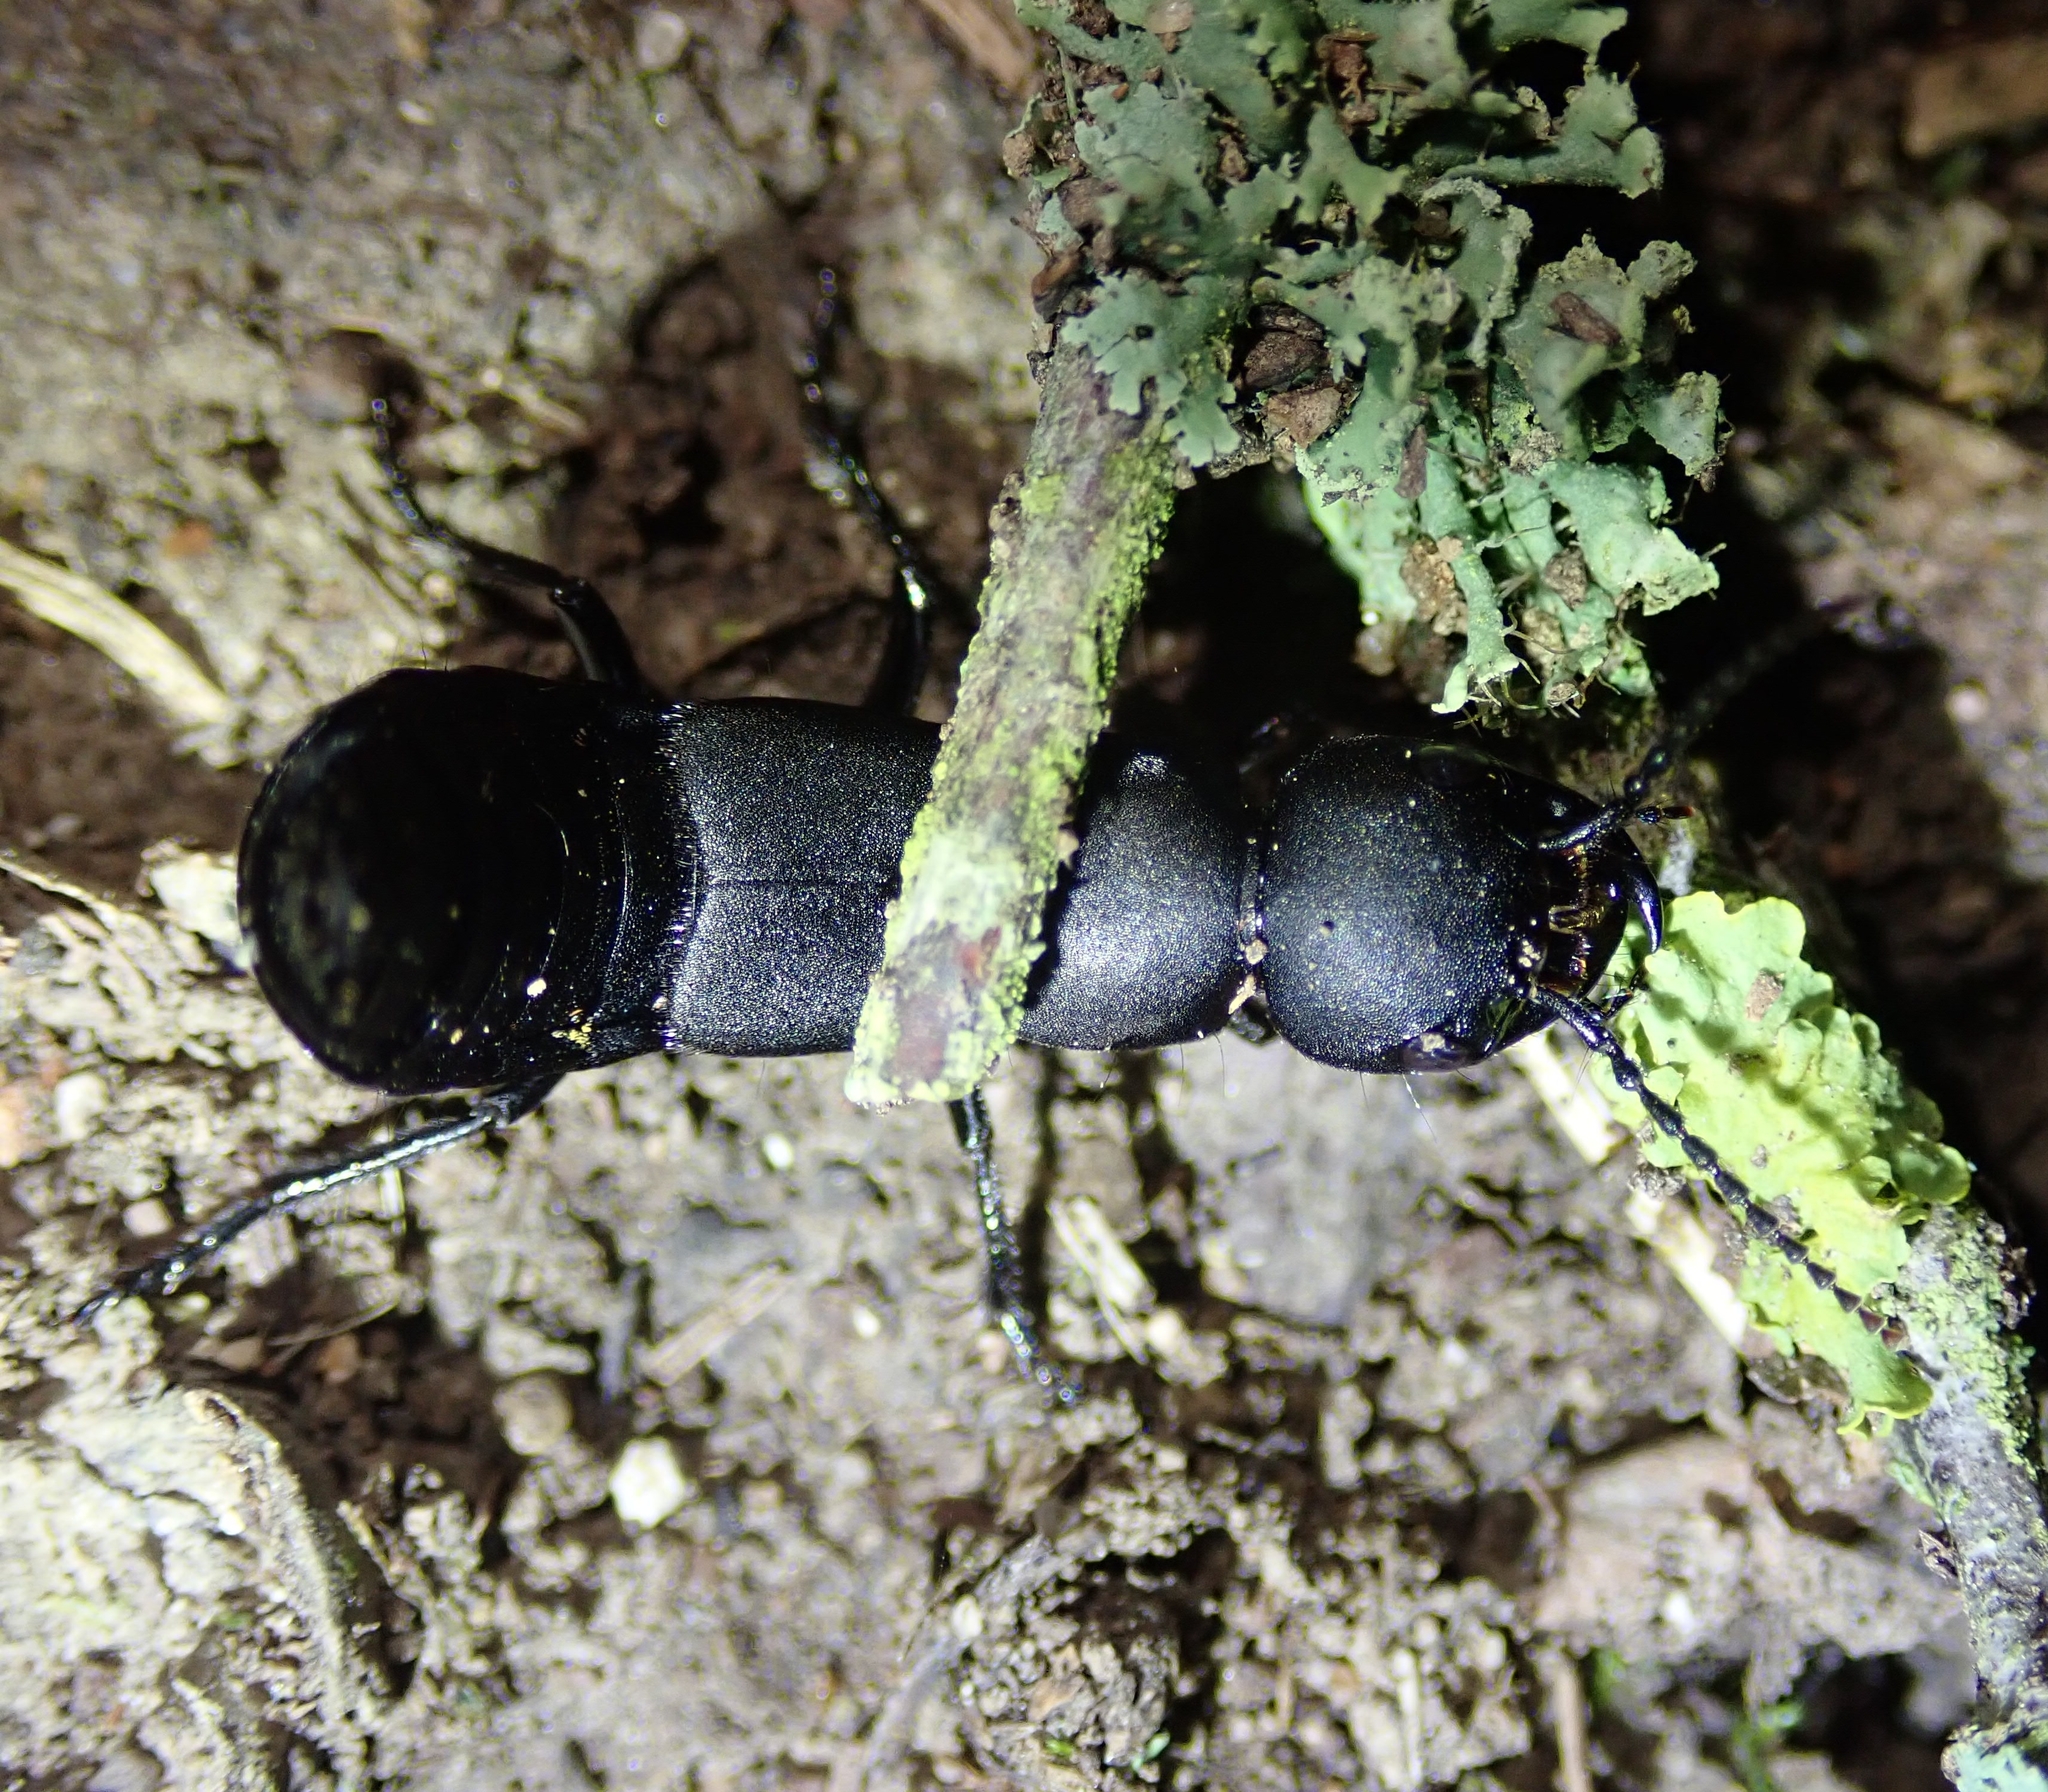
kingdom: Animalia
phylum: Arthropoda
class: Insecta
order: Coleoptera
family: Staphylinidae
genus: Ocypus
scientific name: Ocypus olens
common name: Devil's coach-horse
